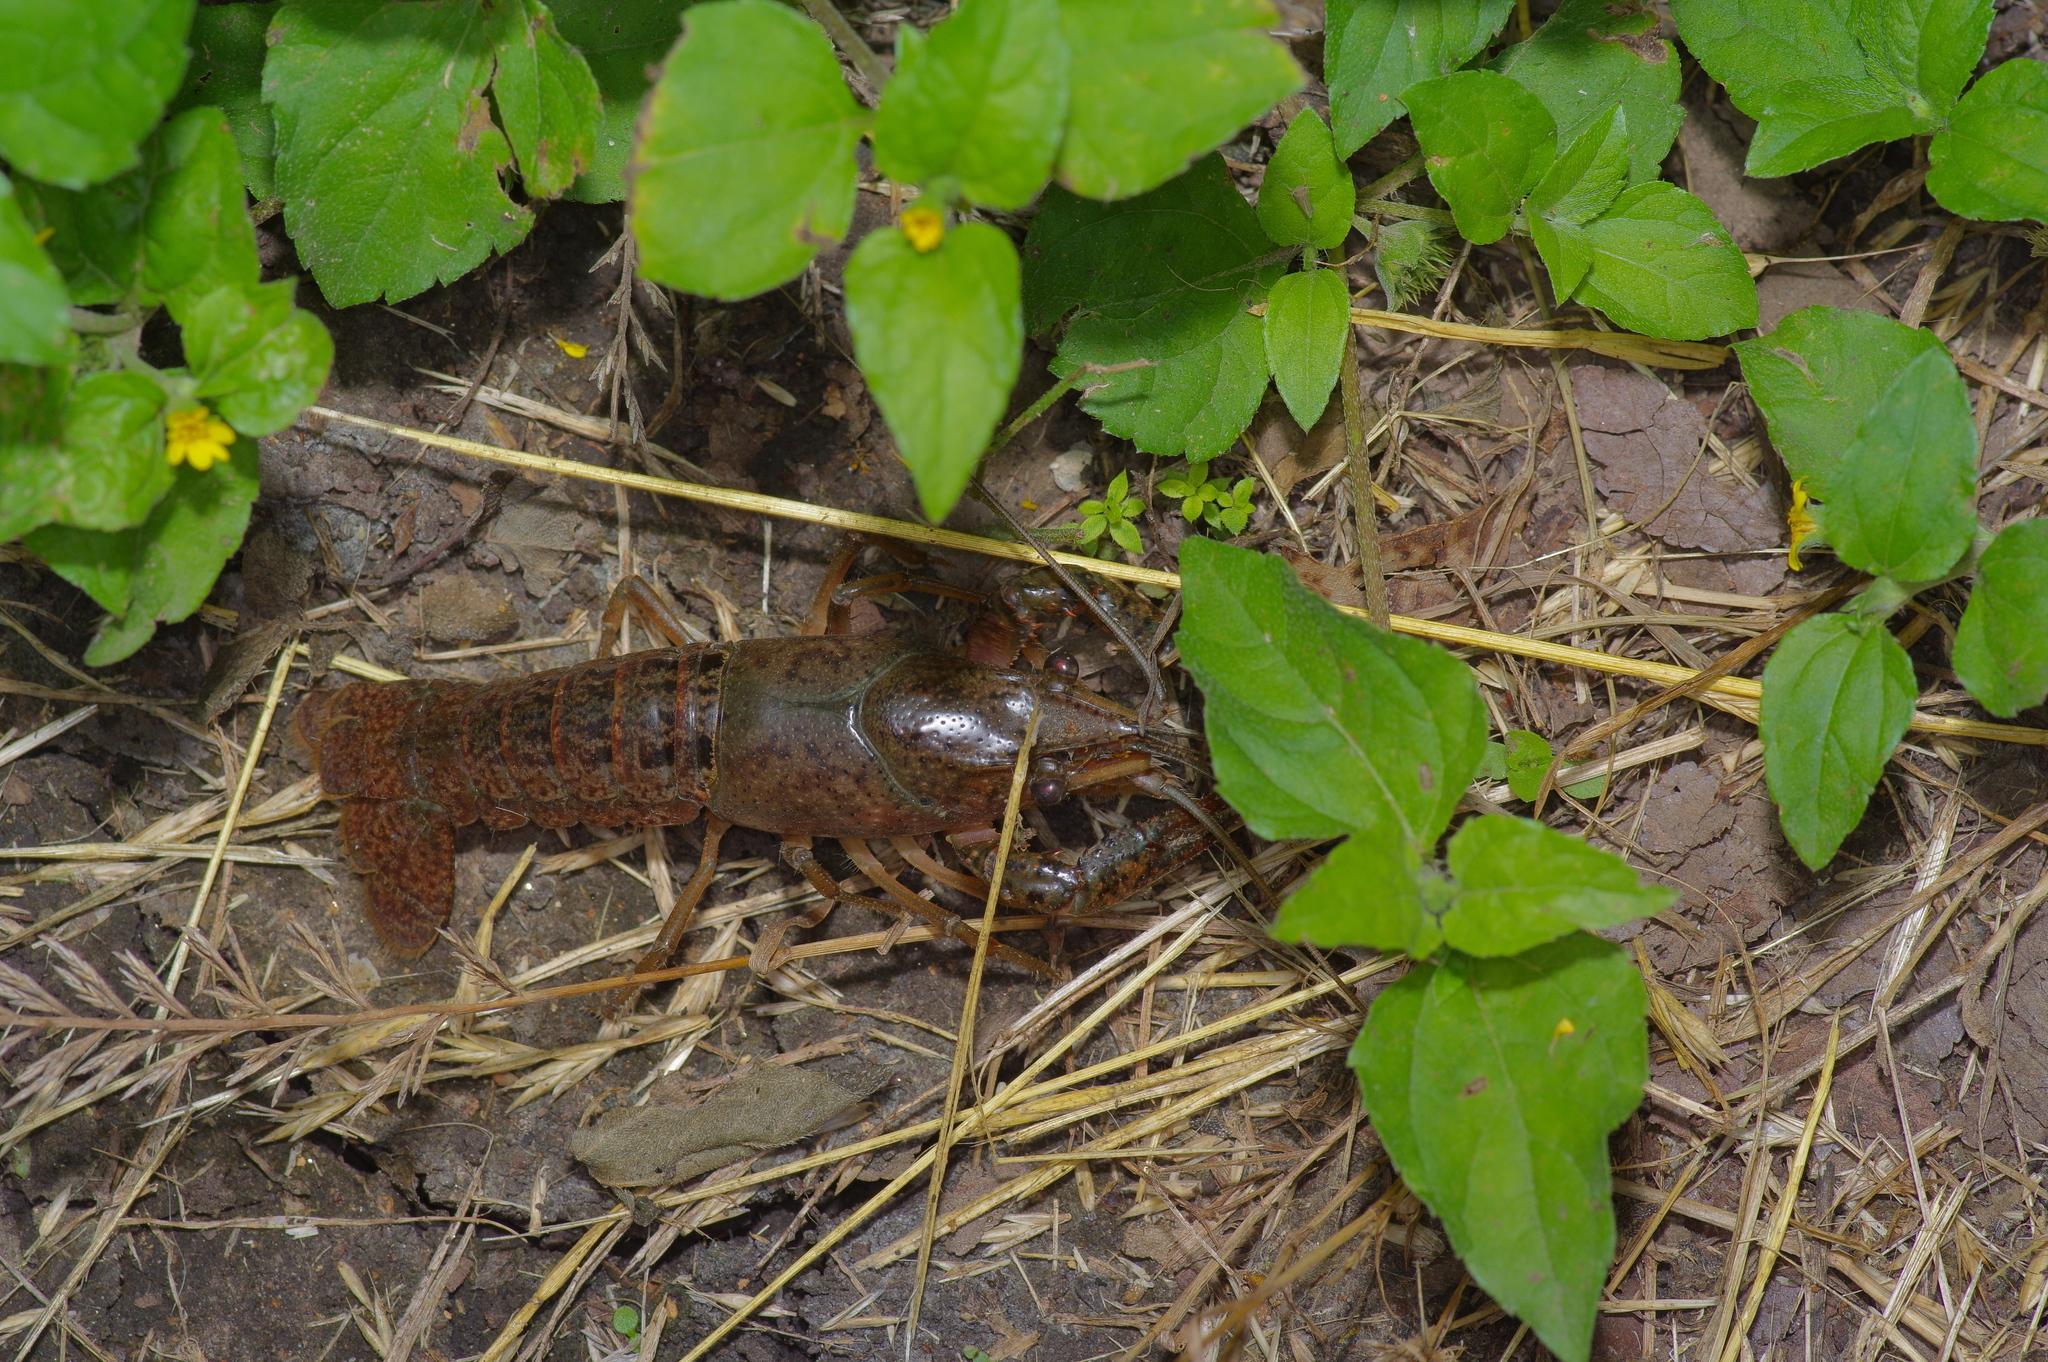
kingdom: Animalia
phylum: Arthropoda
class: Malacostraca
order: Decapoda
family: Cambaridae
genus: Procambarus
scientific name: Procambarus clarkii
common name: Red swamp crayfish
